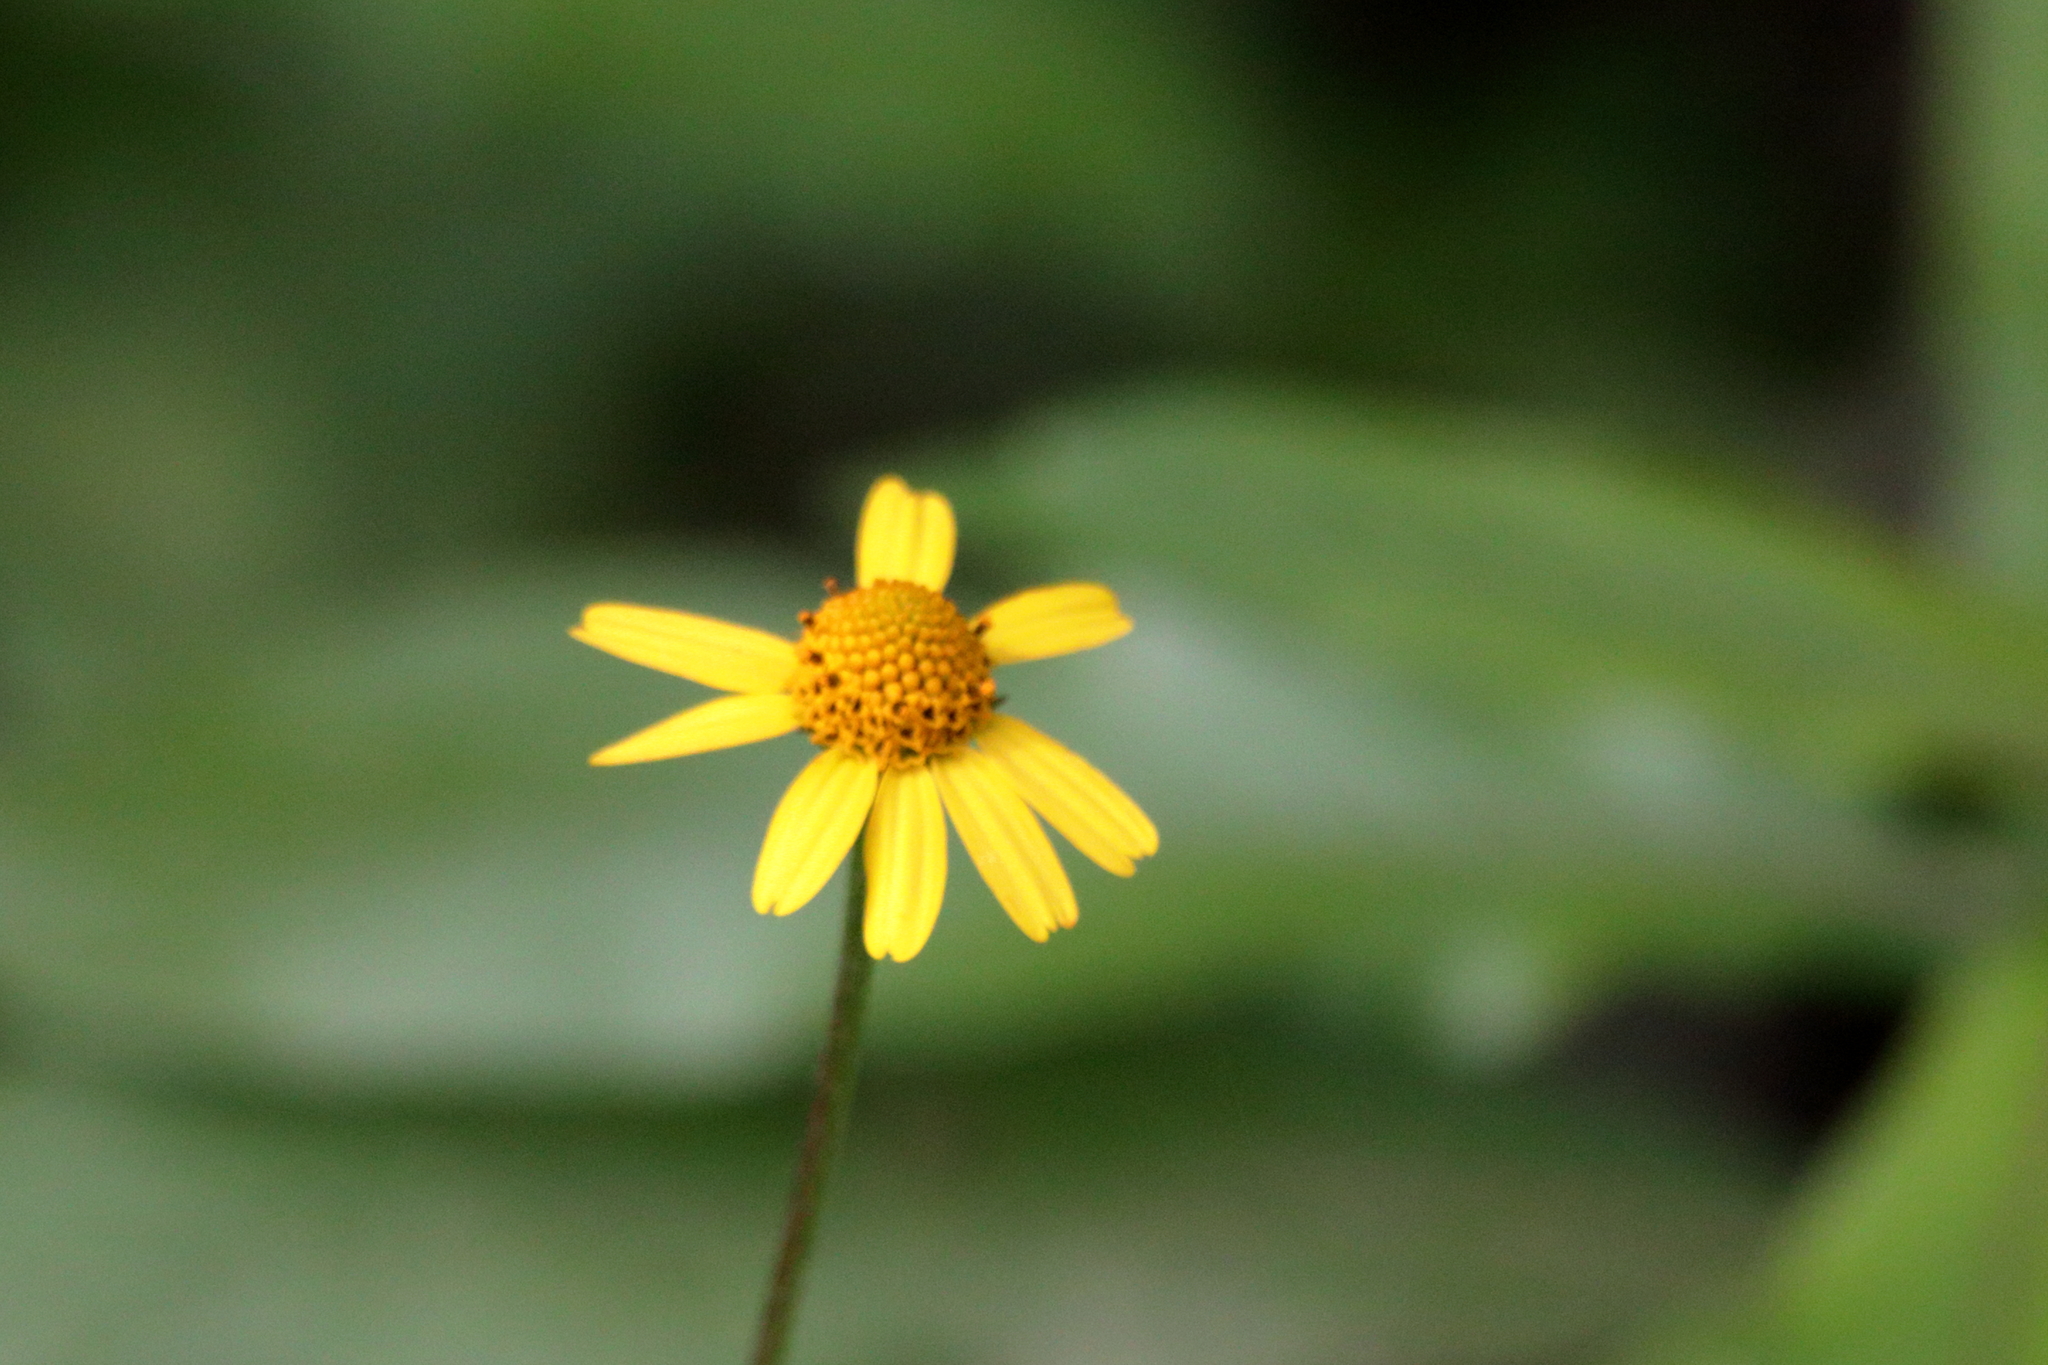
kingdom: Plantae
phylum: Tracheophyta
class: Magnoliopsida
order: Asterales
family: Asteraceae
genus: Acmella
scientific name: Acmella repens
